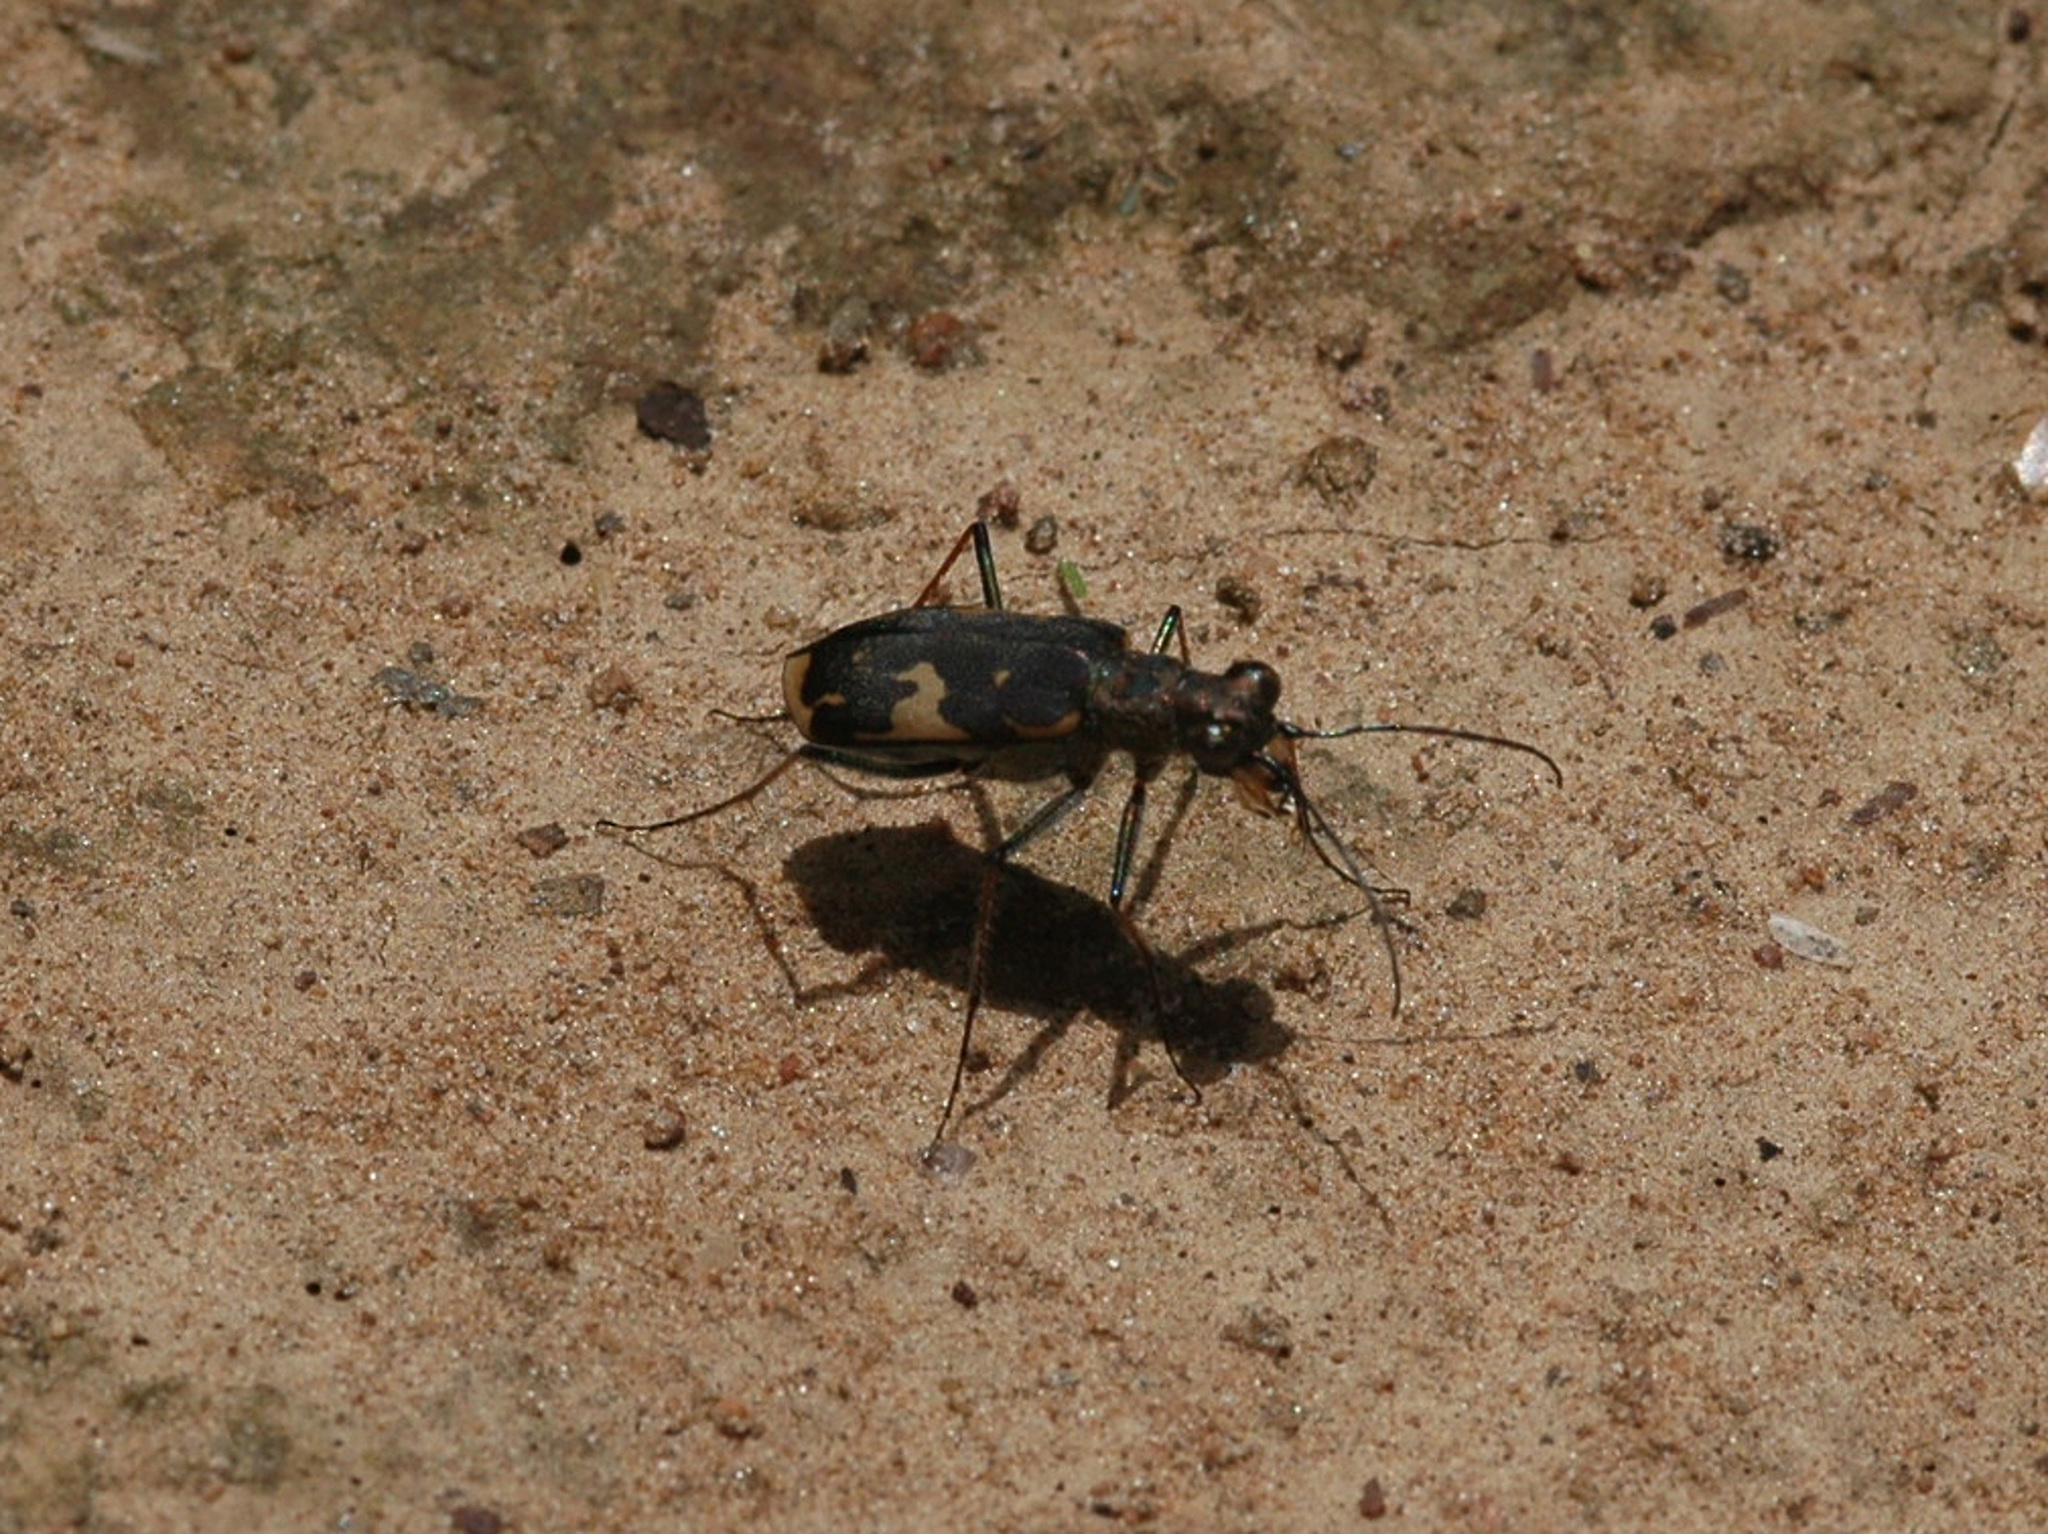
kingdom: Animalia
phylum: Arthropoda
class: Insecta
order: Coleoptera
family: Carabidae
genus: Myriochila
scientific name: Myriochila jordaniana
